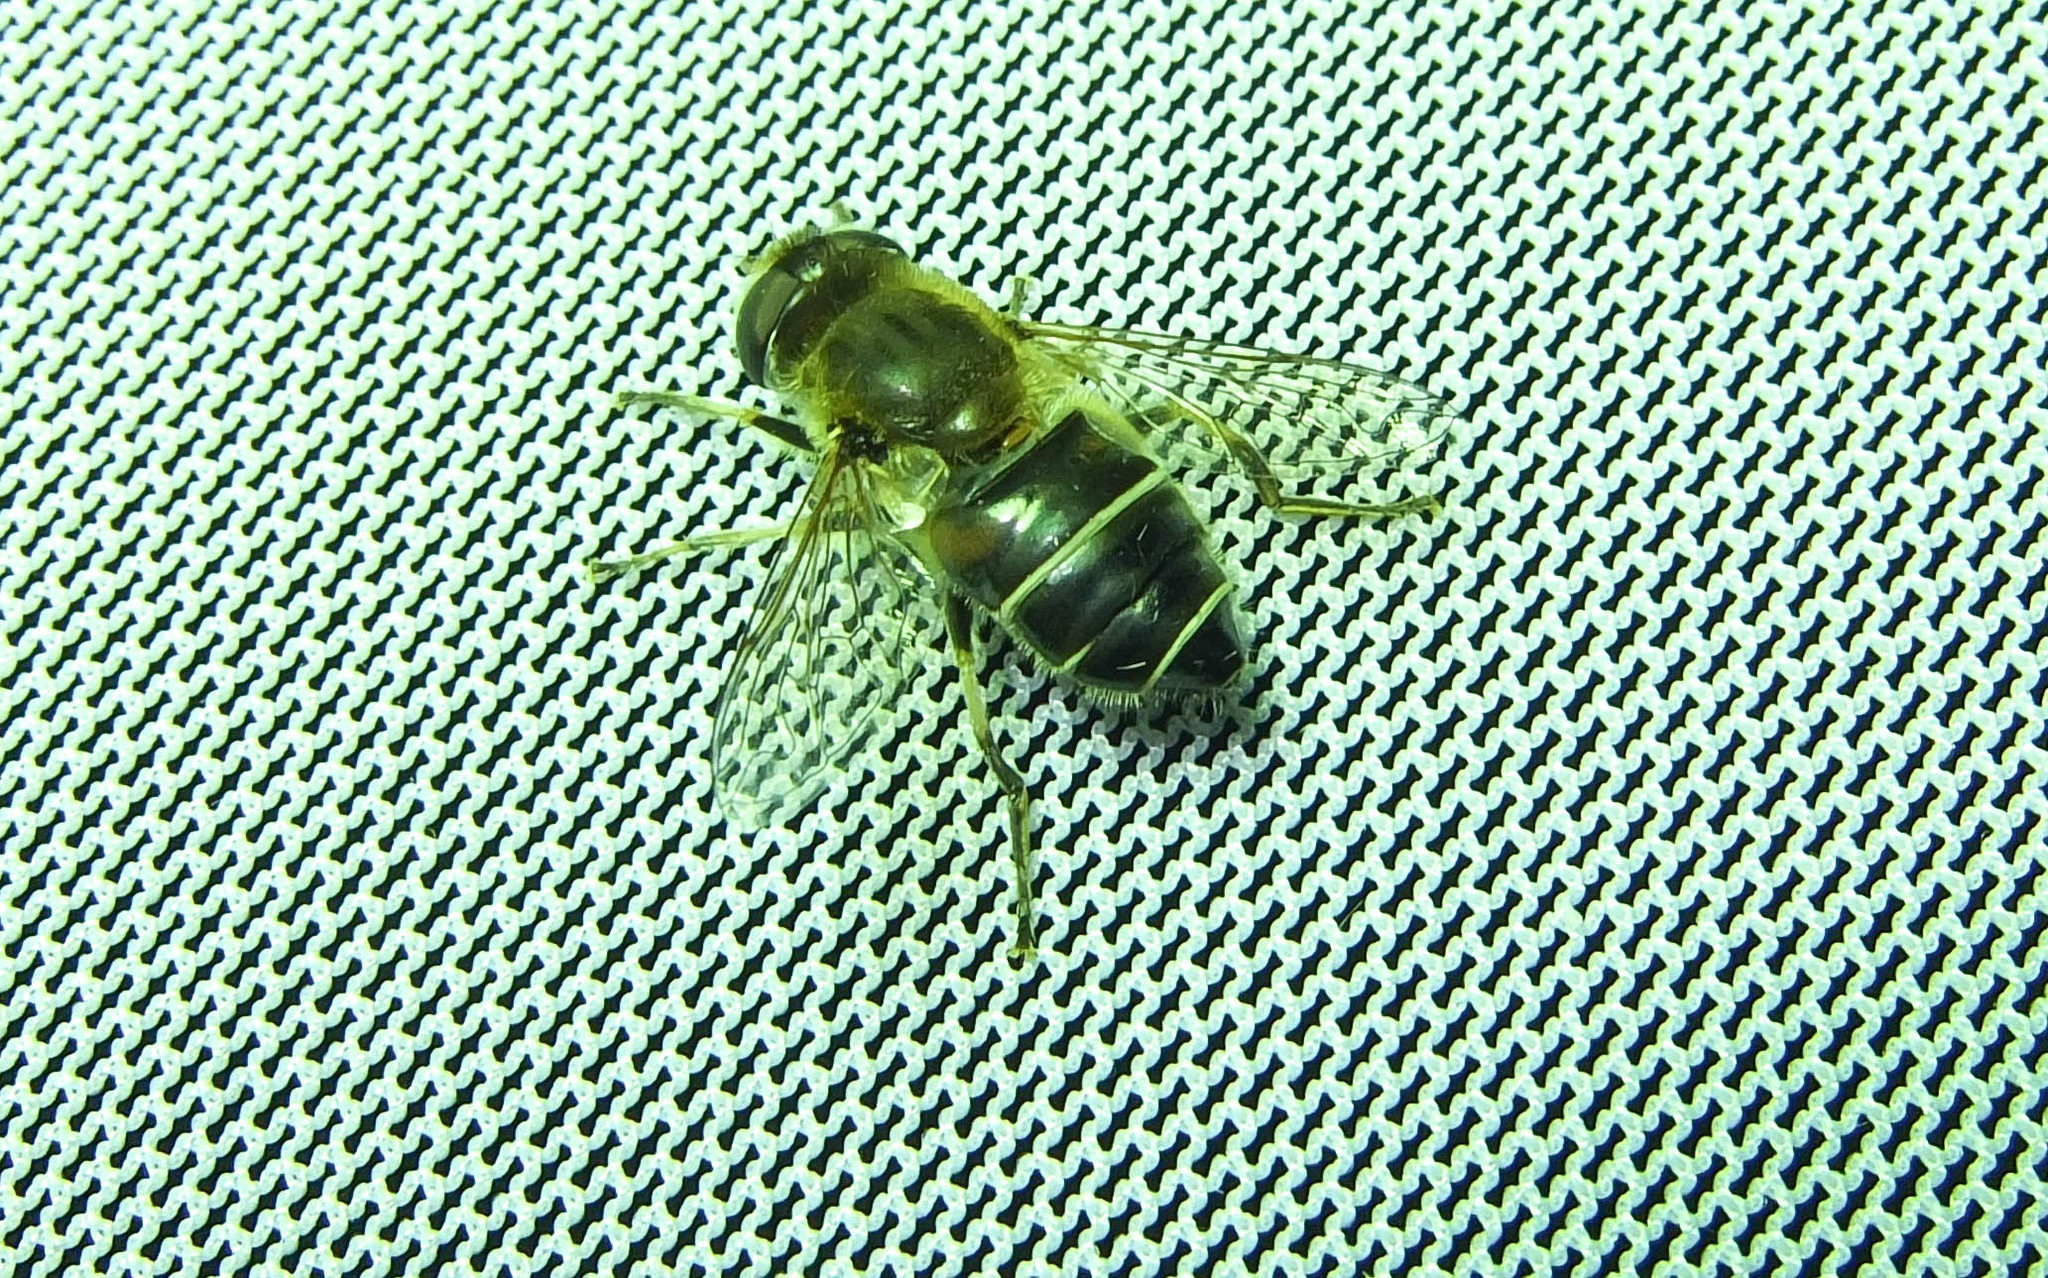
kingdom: Animalia
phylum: Arthropoda
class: Insecta
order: Diptera
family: Syrphidae
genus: Eristalis
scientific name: Eristalis nemorum
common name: Orange-spined drone fly
